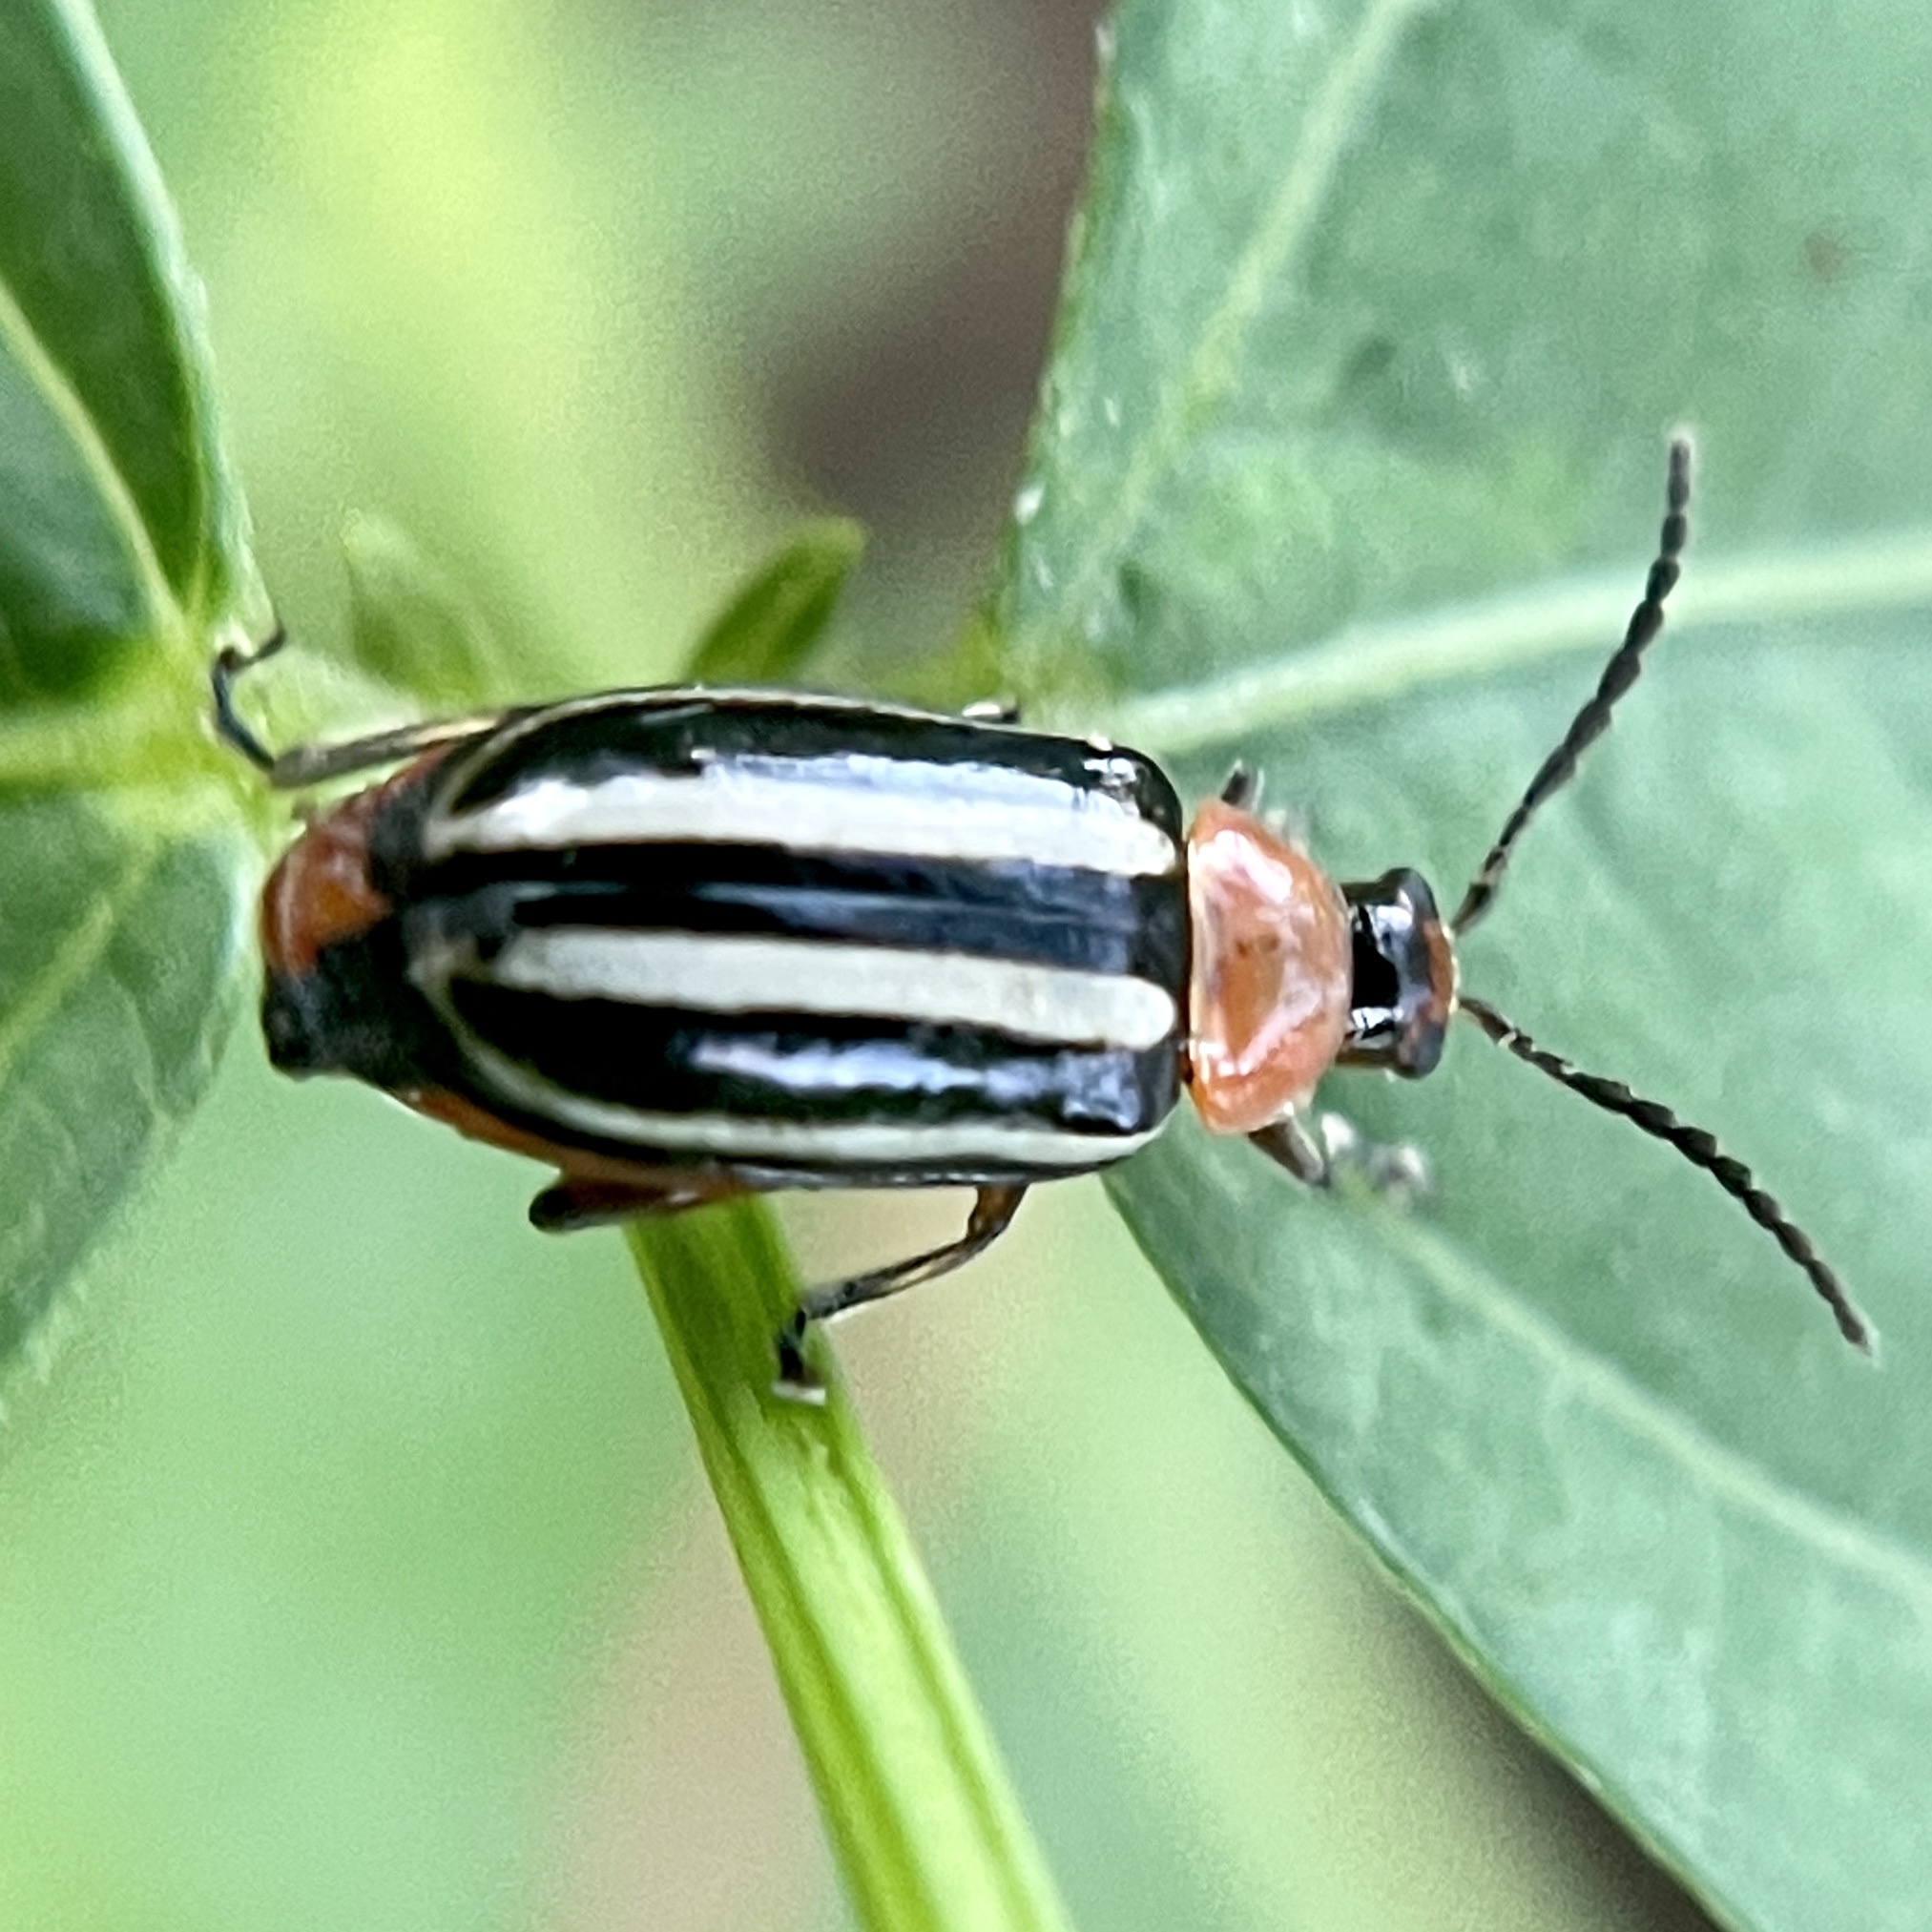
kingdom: Animalia
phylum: Arthropoda
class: Insecta
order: Coleoptera
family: Chrysomelidae
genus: Disonycha
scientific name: Disonycha glabrata
